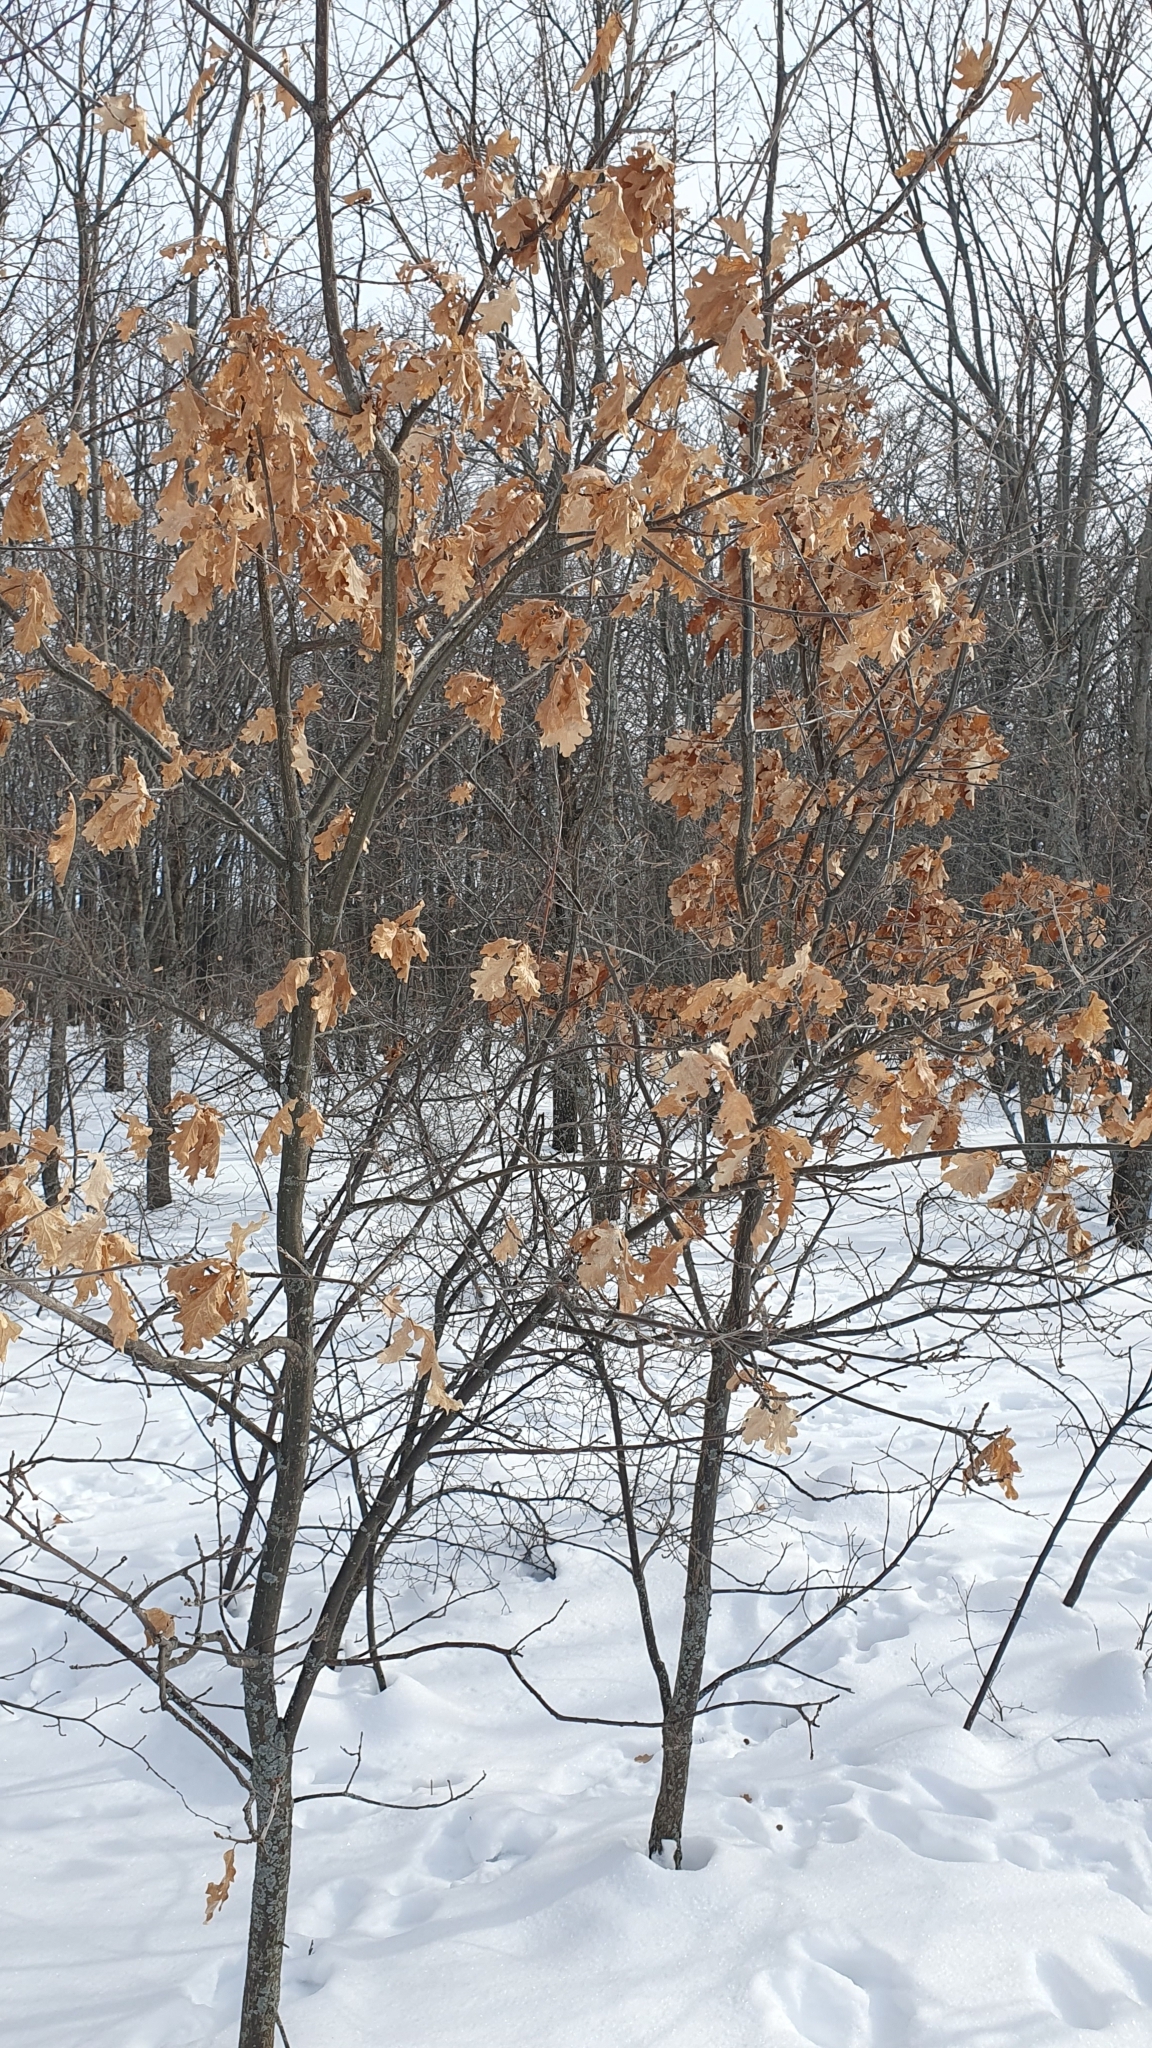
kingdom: Plantae
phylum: Tracheophyta
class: Magnoliopsida
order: Fagales
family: Fagaceae
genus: Quercus
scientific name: Quercus robur
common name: Pedunculate oak
